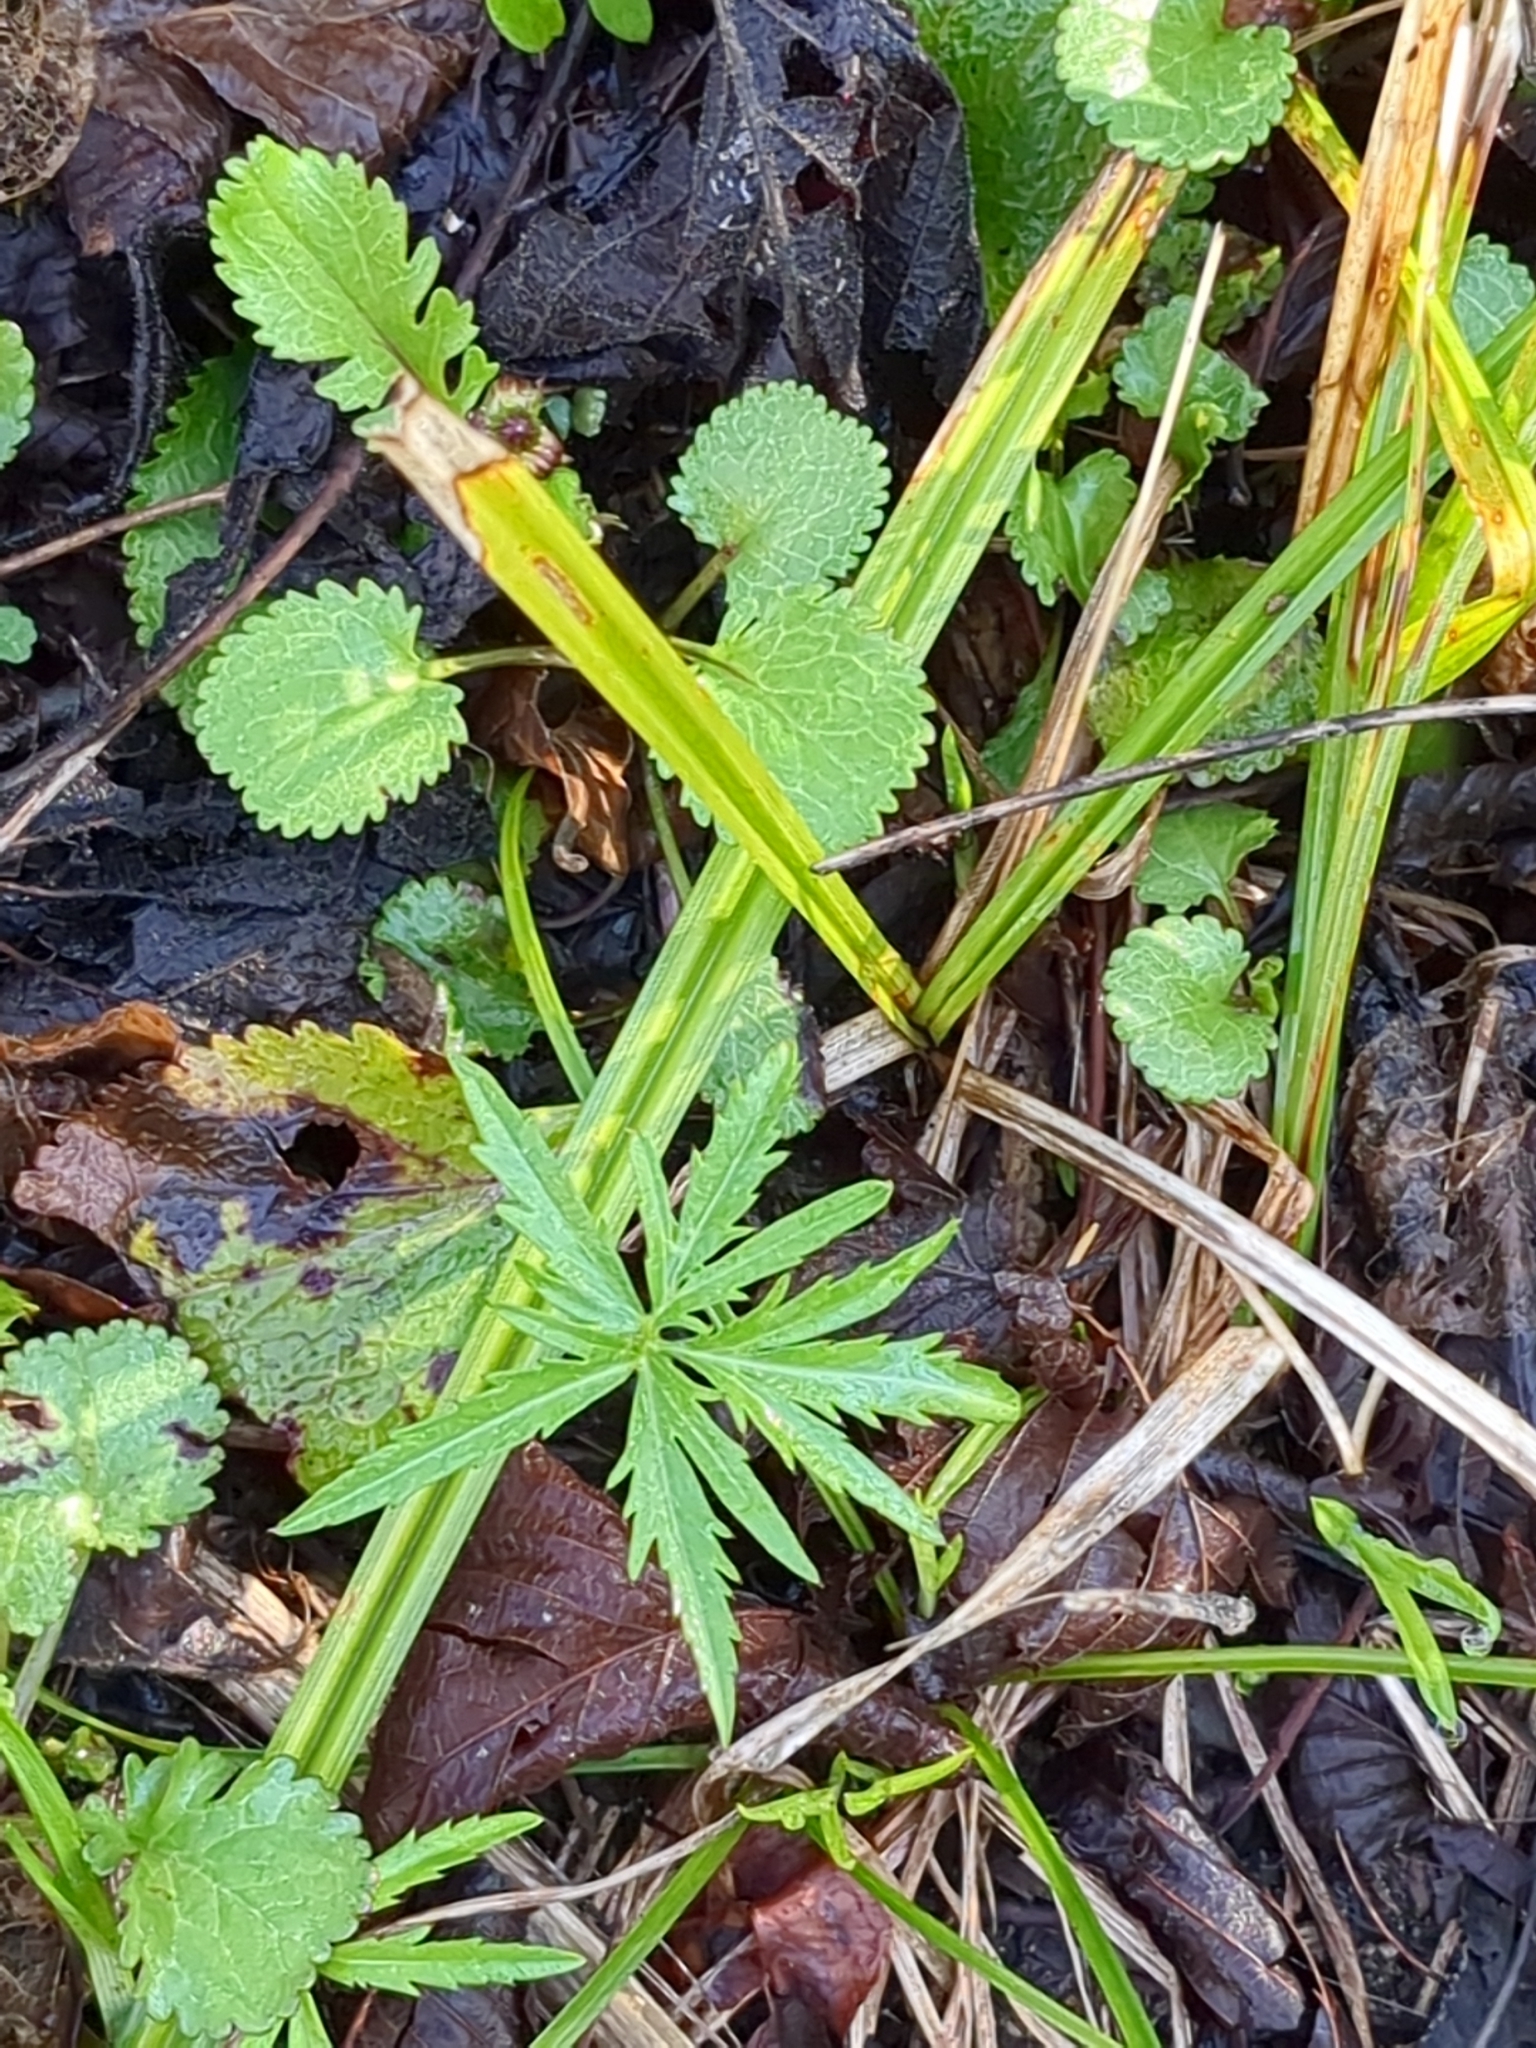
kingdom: Plantae
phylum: Tracheophyta
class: Magnoliopsida
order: Brassicales
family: Brassicaceae
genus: Cardamine
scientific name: Cardamine concatenata
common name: Cut-leaf toothcup
